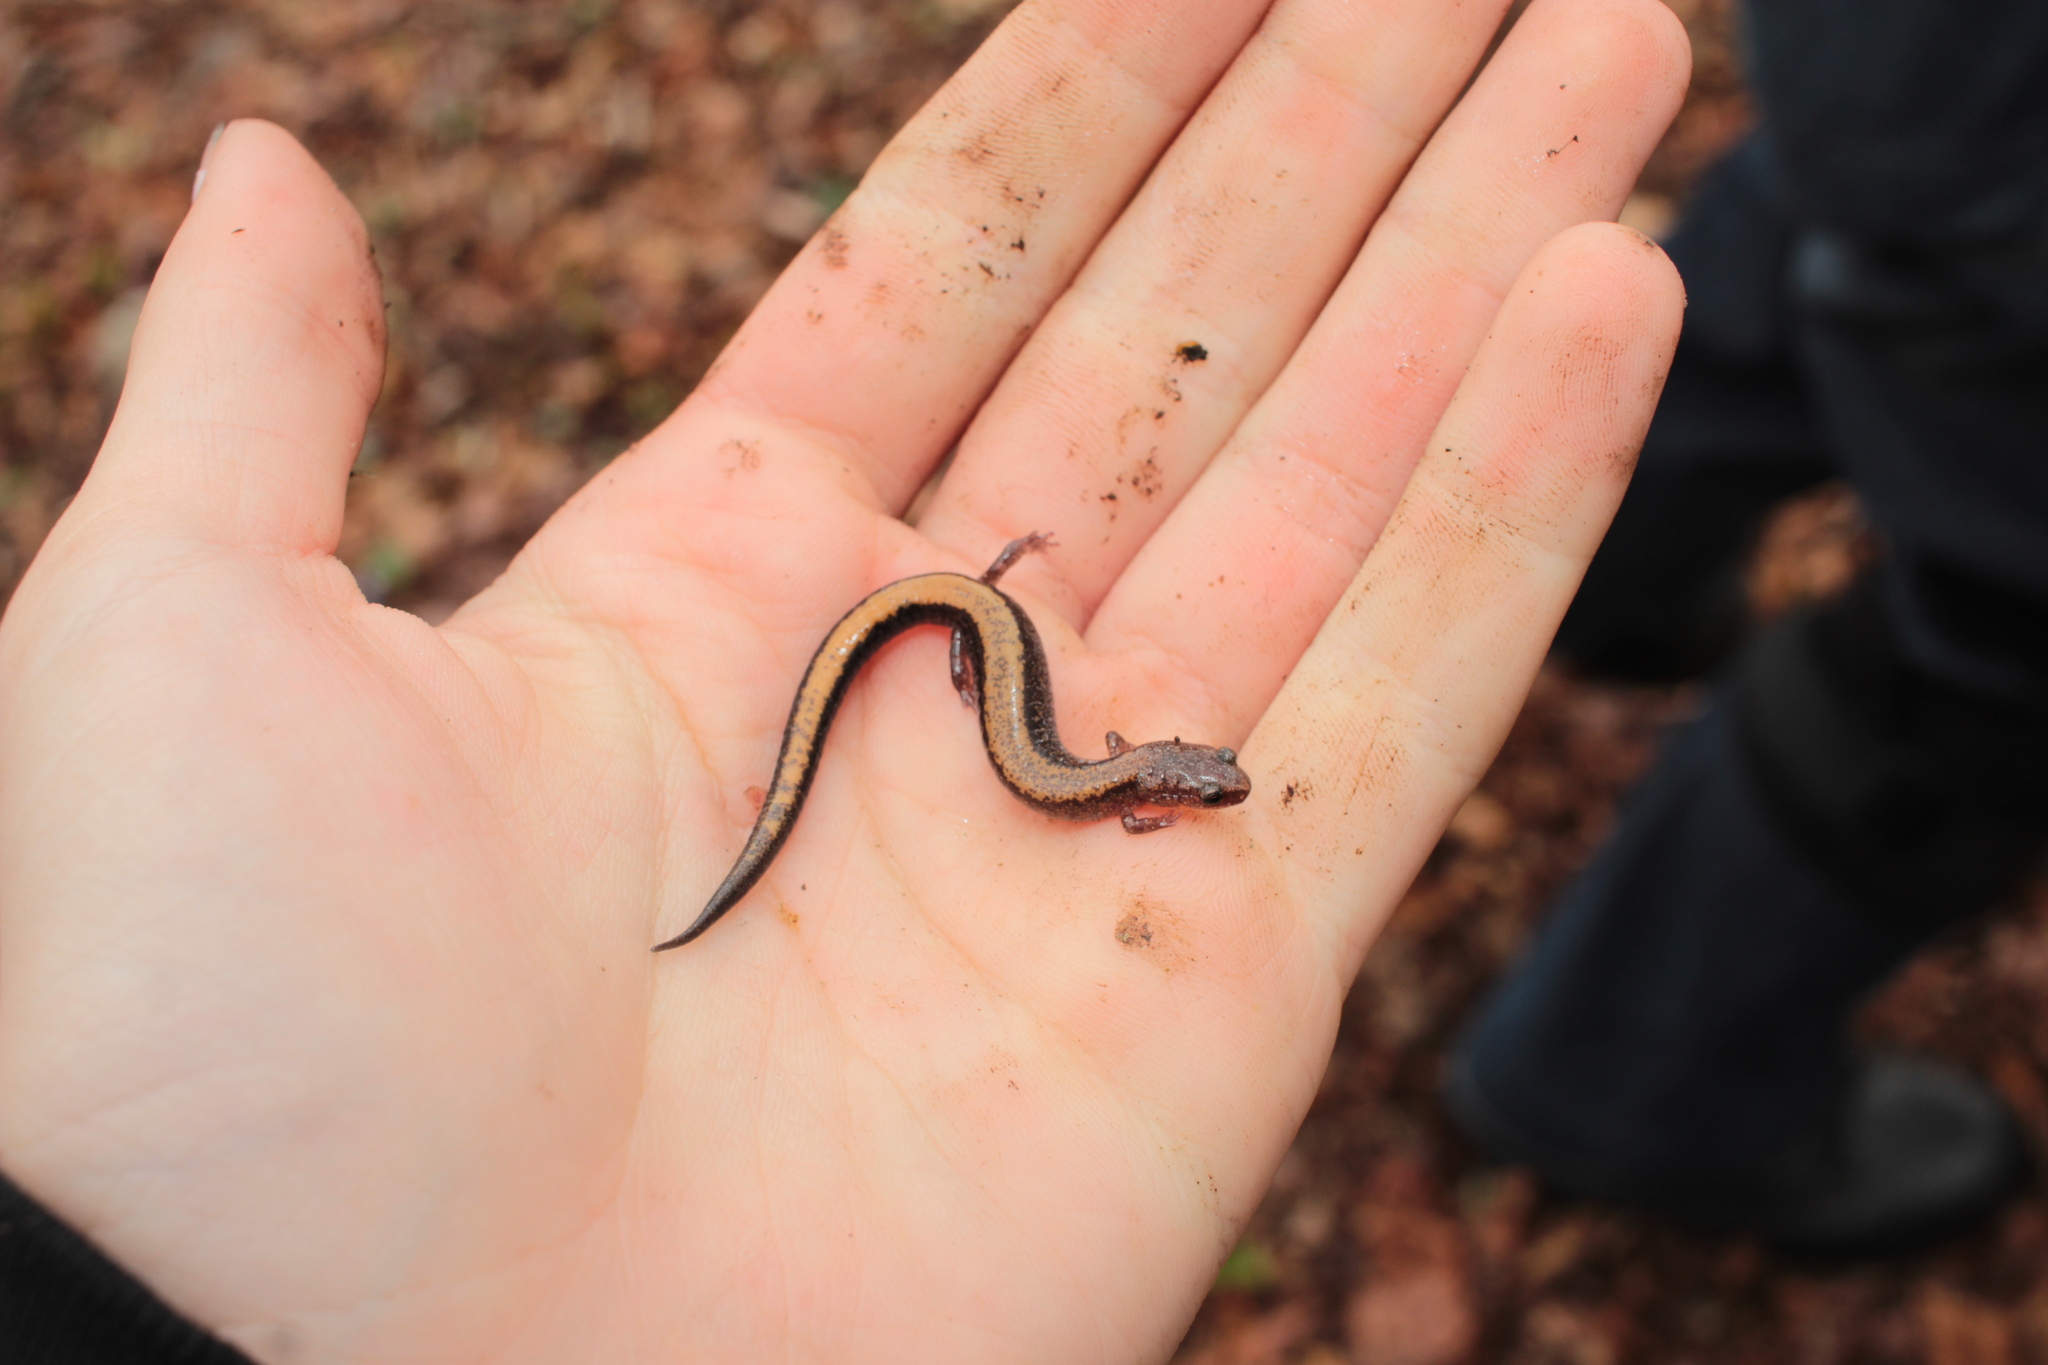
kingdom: Animalia
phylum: Chordata
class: Amphibia
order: Caudata
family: Plethodontidae
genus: Plethodon
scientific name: Plethodon cinereus
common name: Redback salamander
